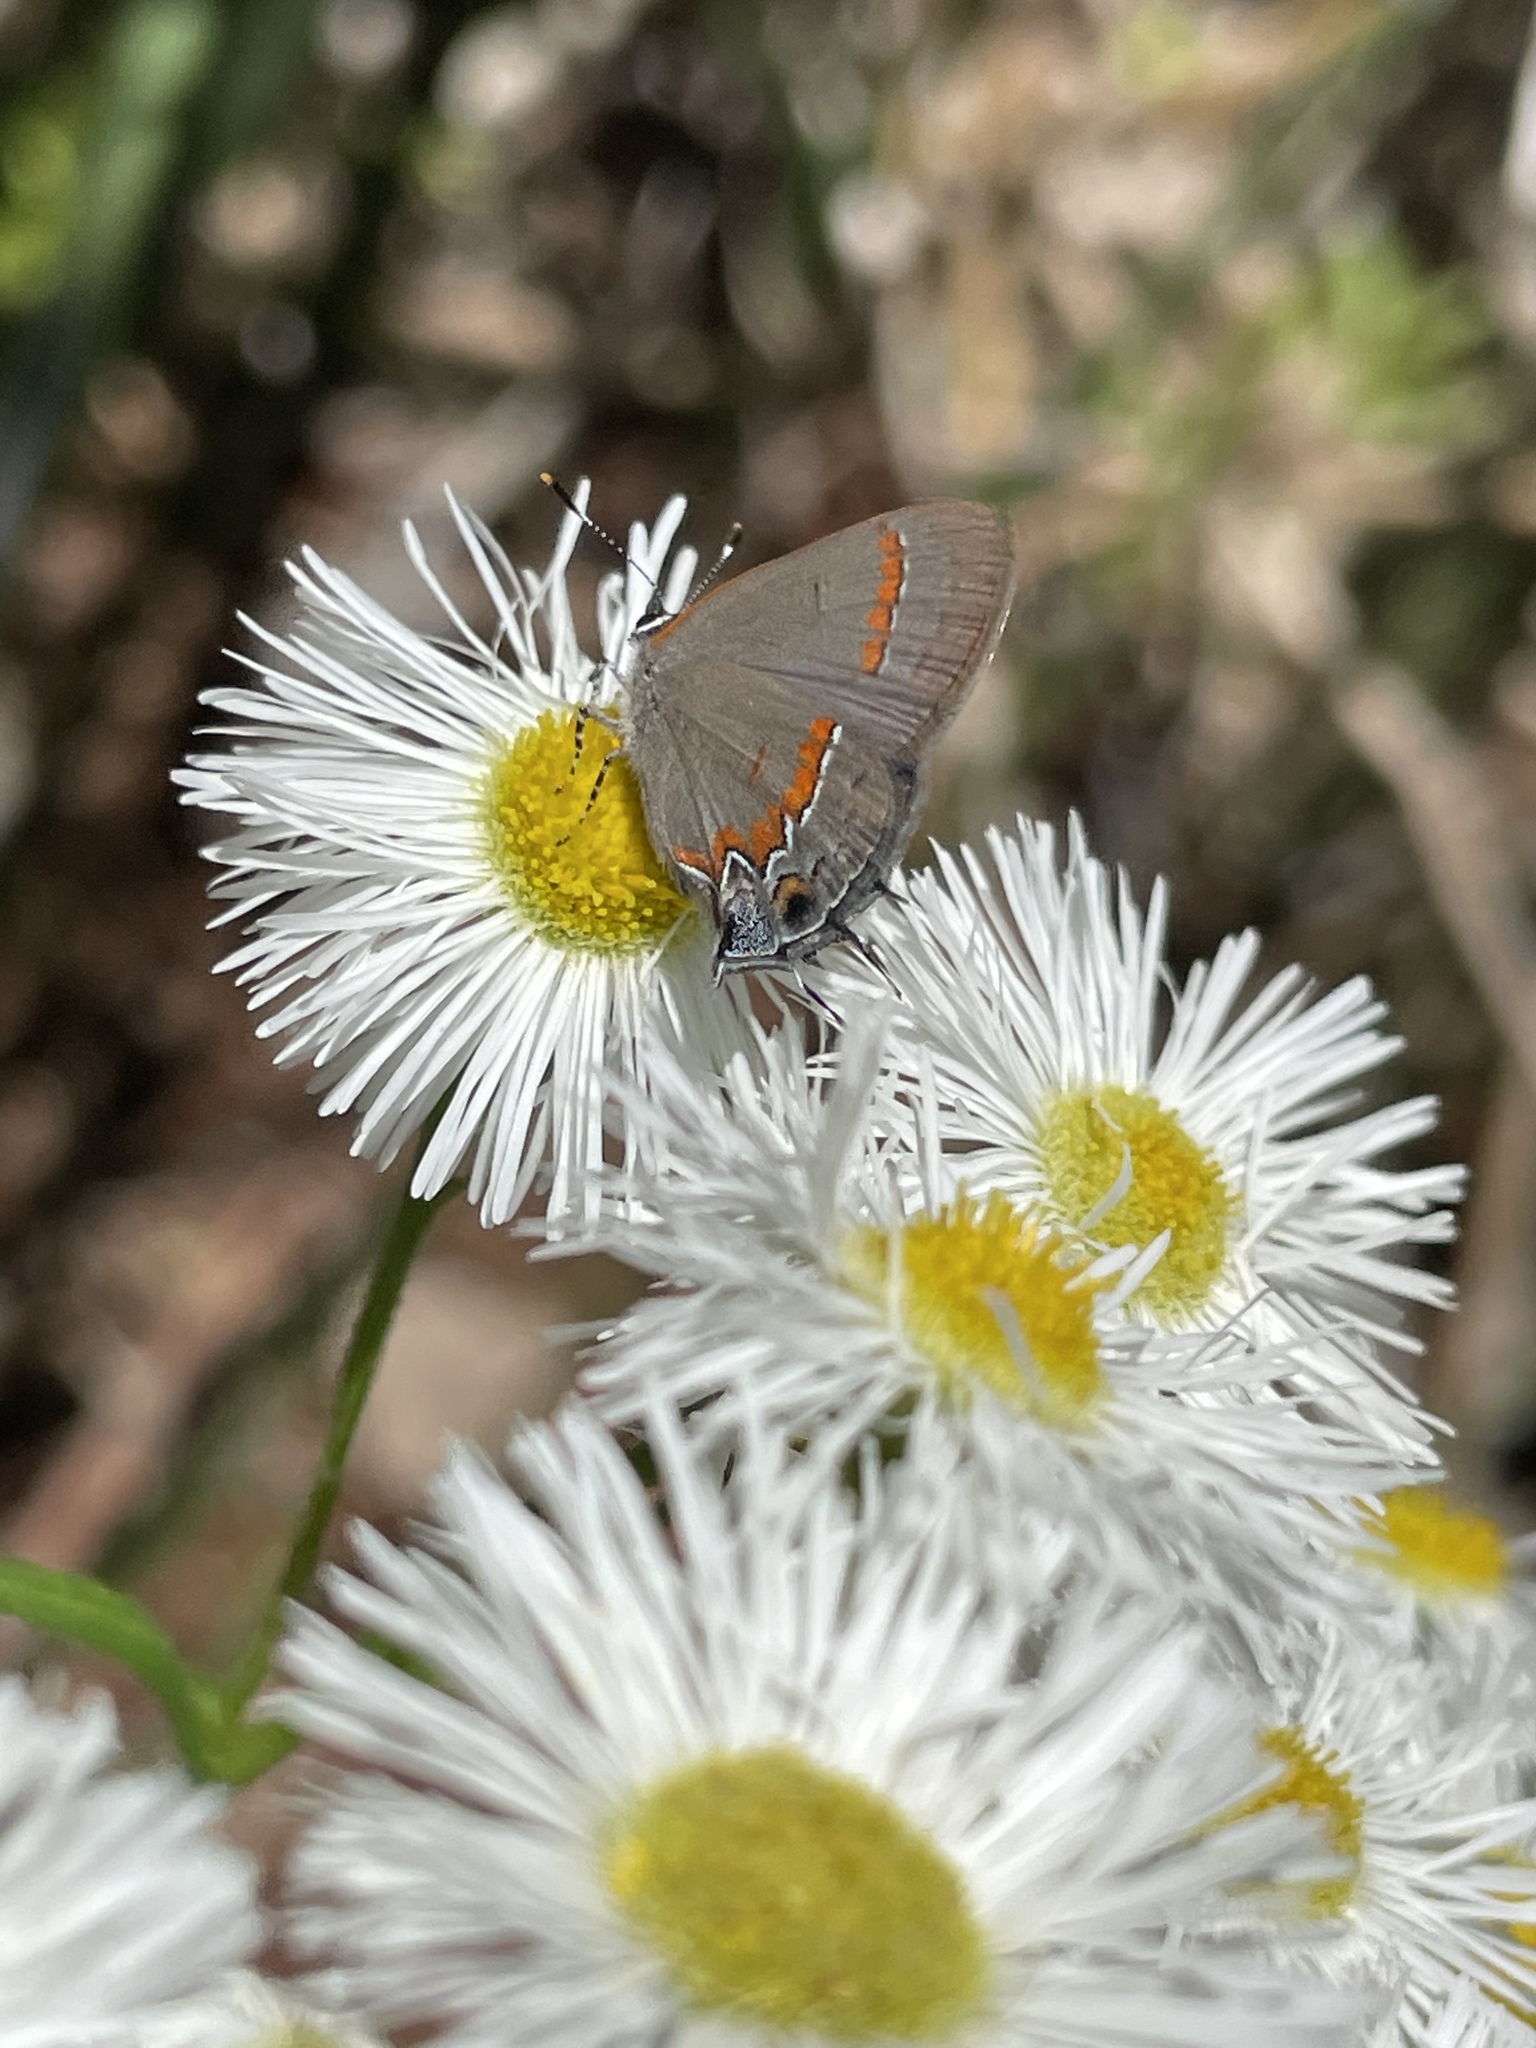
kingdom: Animalia
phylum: Arthropoda
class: Insecta
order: Lepidoptera
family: Lycaenidae
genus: Calycopis
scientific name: Calycopis cecrops
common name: Red-banded hairstreak
